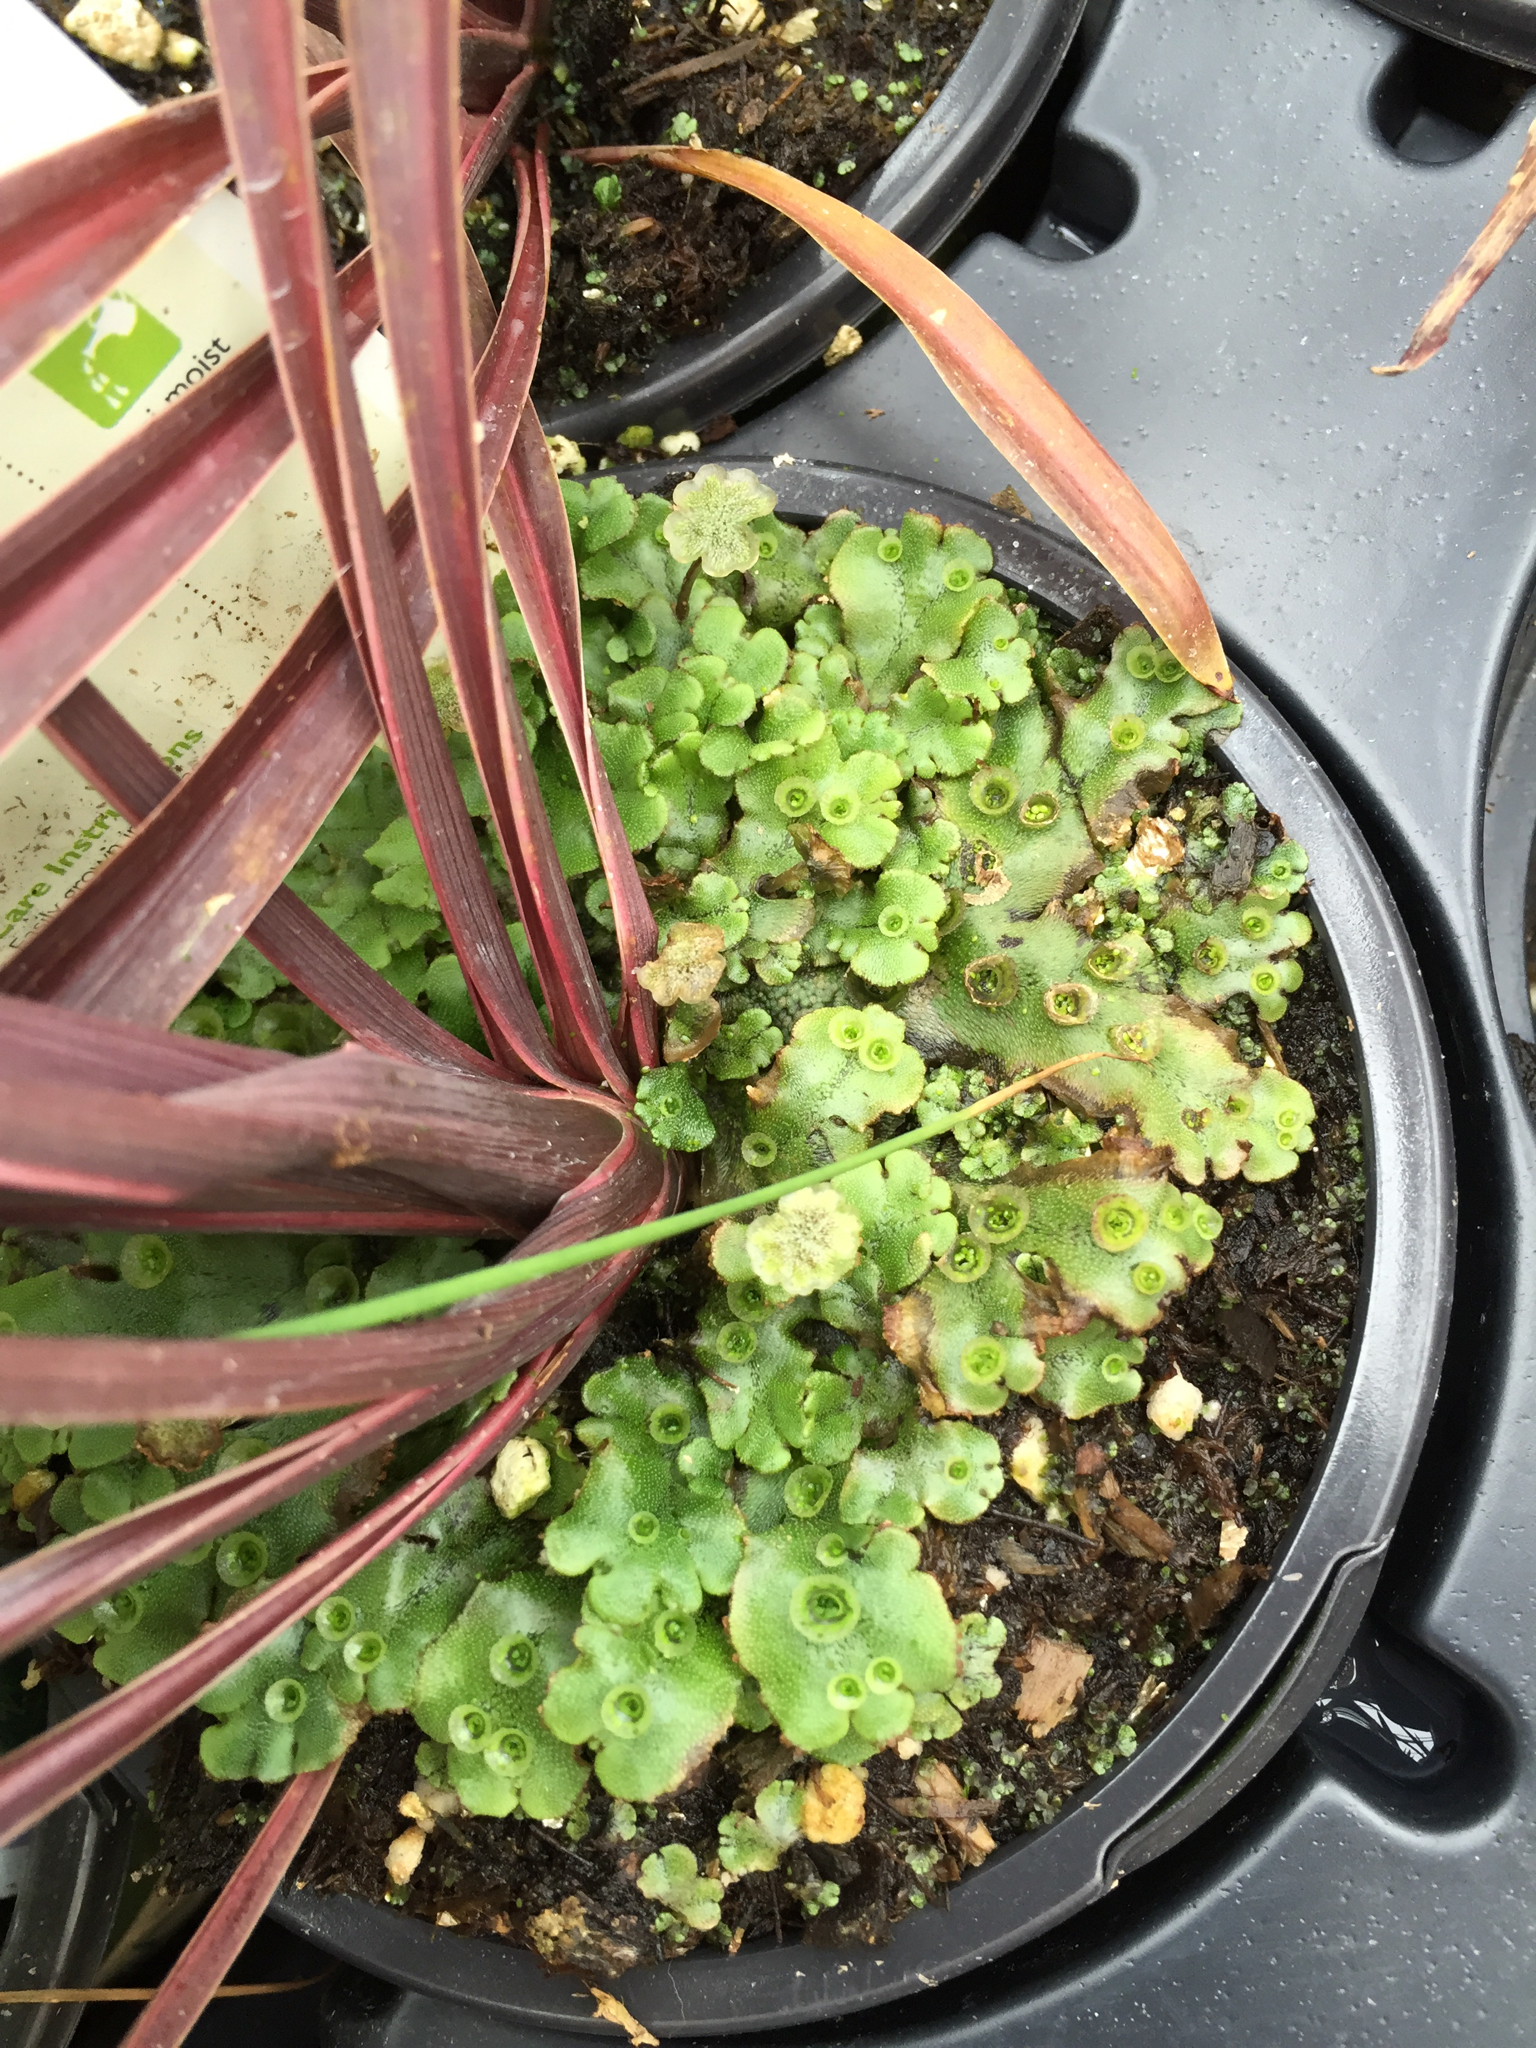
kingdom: Plantae
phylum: Marchantiophyta
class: Marchantiopsida
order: Marchantiales
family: Marchantiaceae
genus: Marchantia
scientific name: Marchantia polymorpha
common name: Common liverwort
